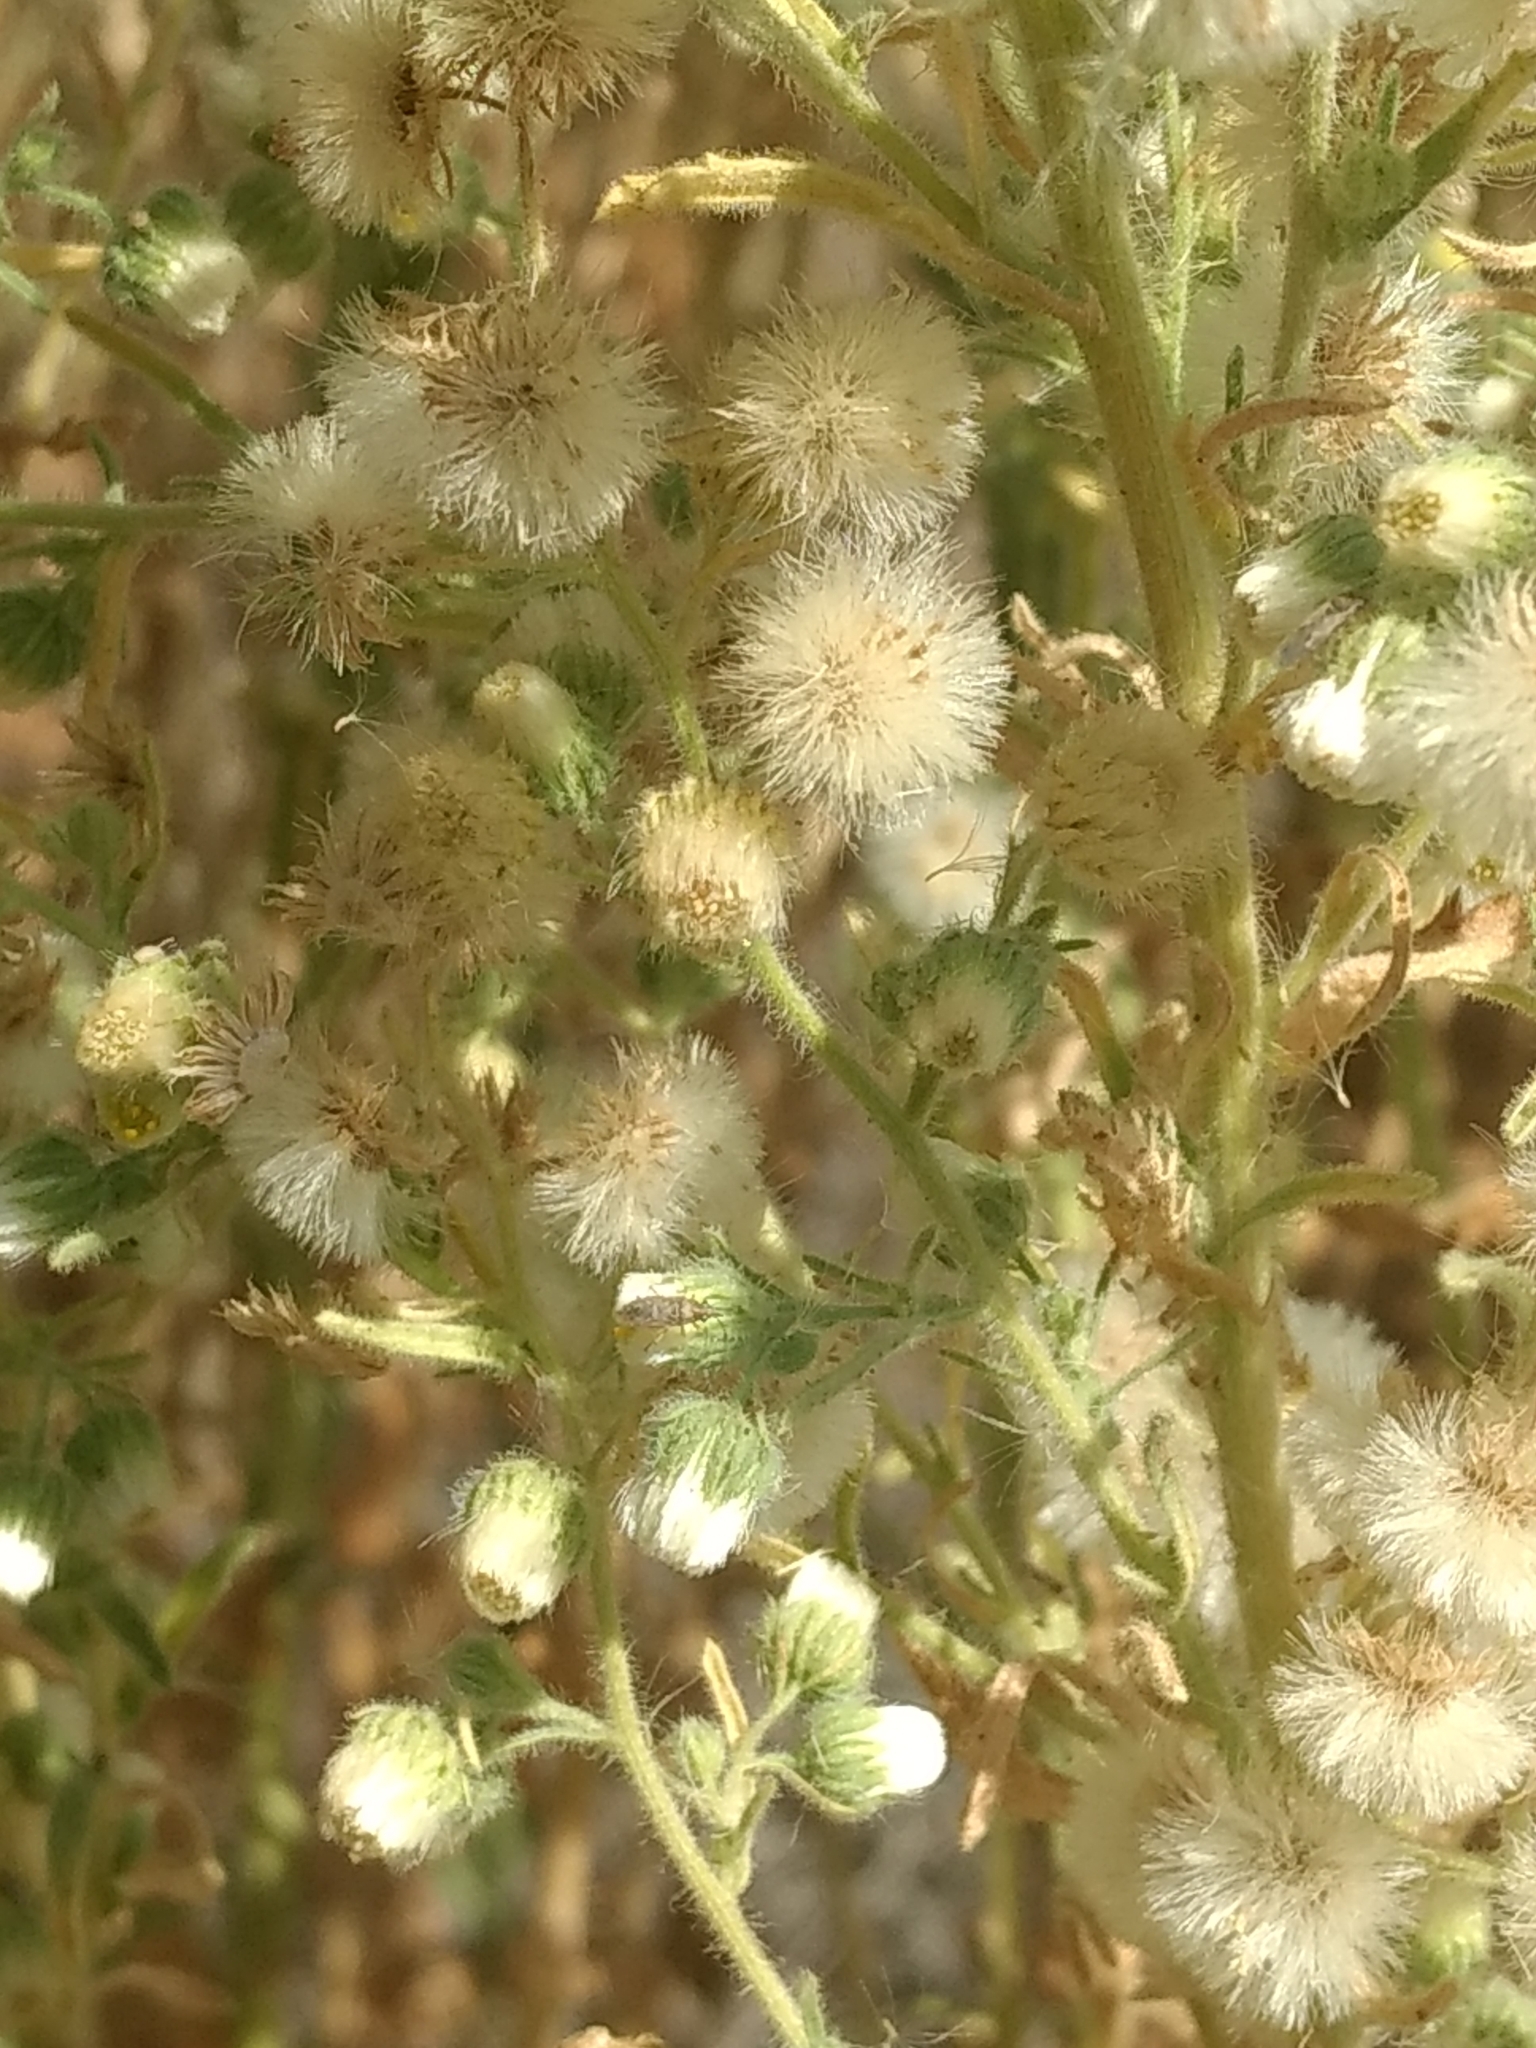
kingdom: Plantae
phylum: Tracheophyta
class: Magnoliopsida
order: Asterales
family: Asteraceae
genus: Laennecia
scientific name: Laennecia coulteri
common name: Coulter's woolwort
